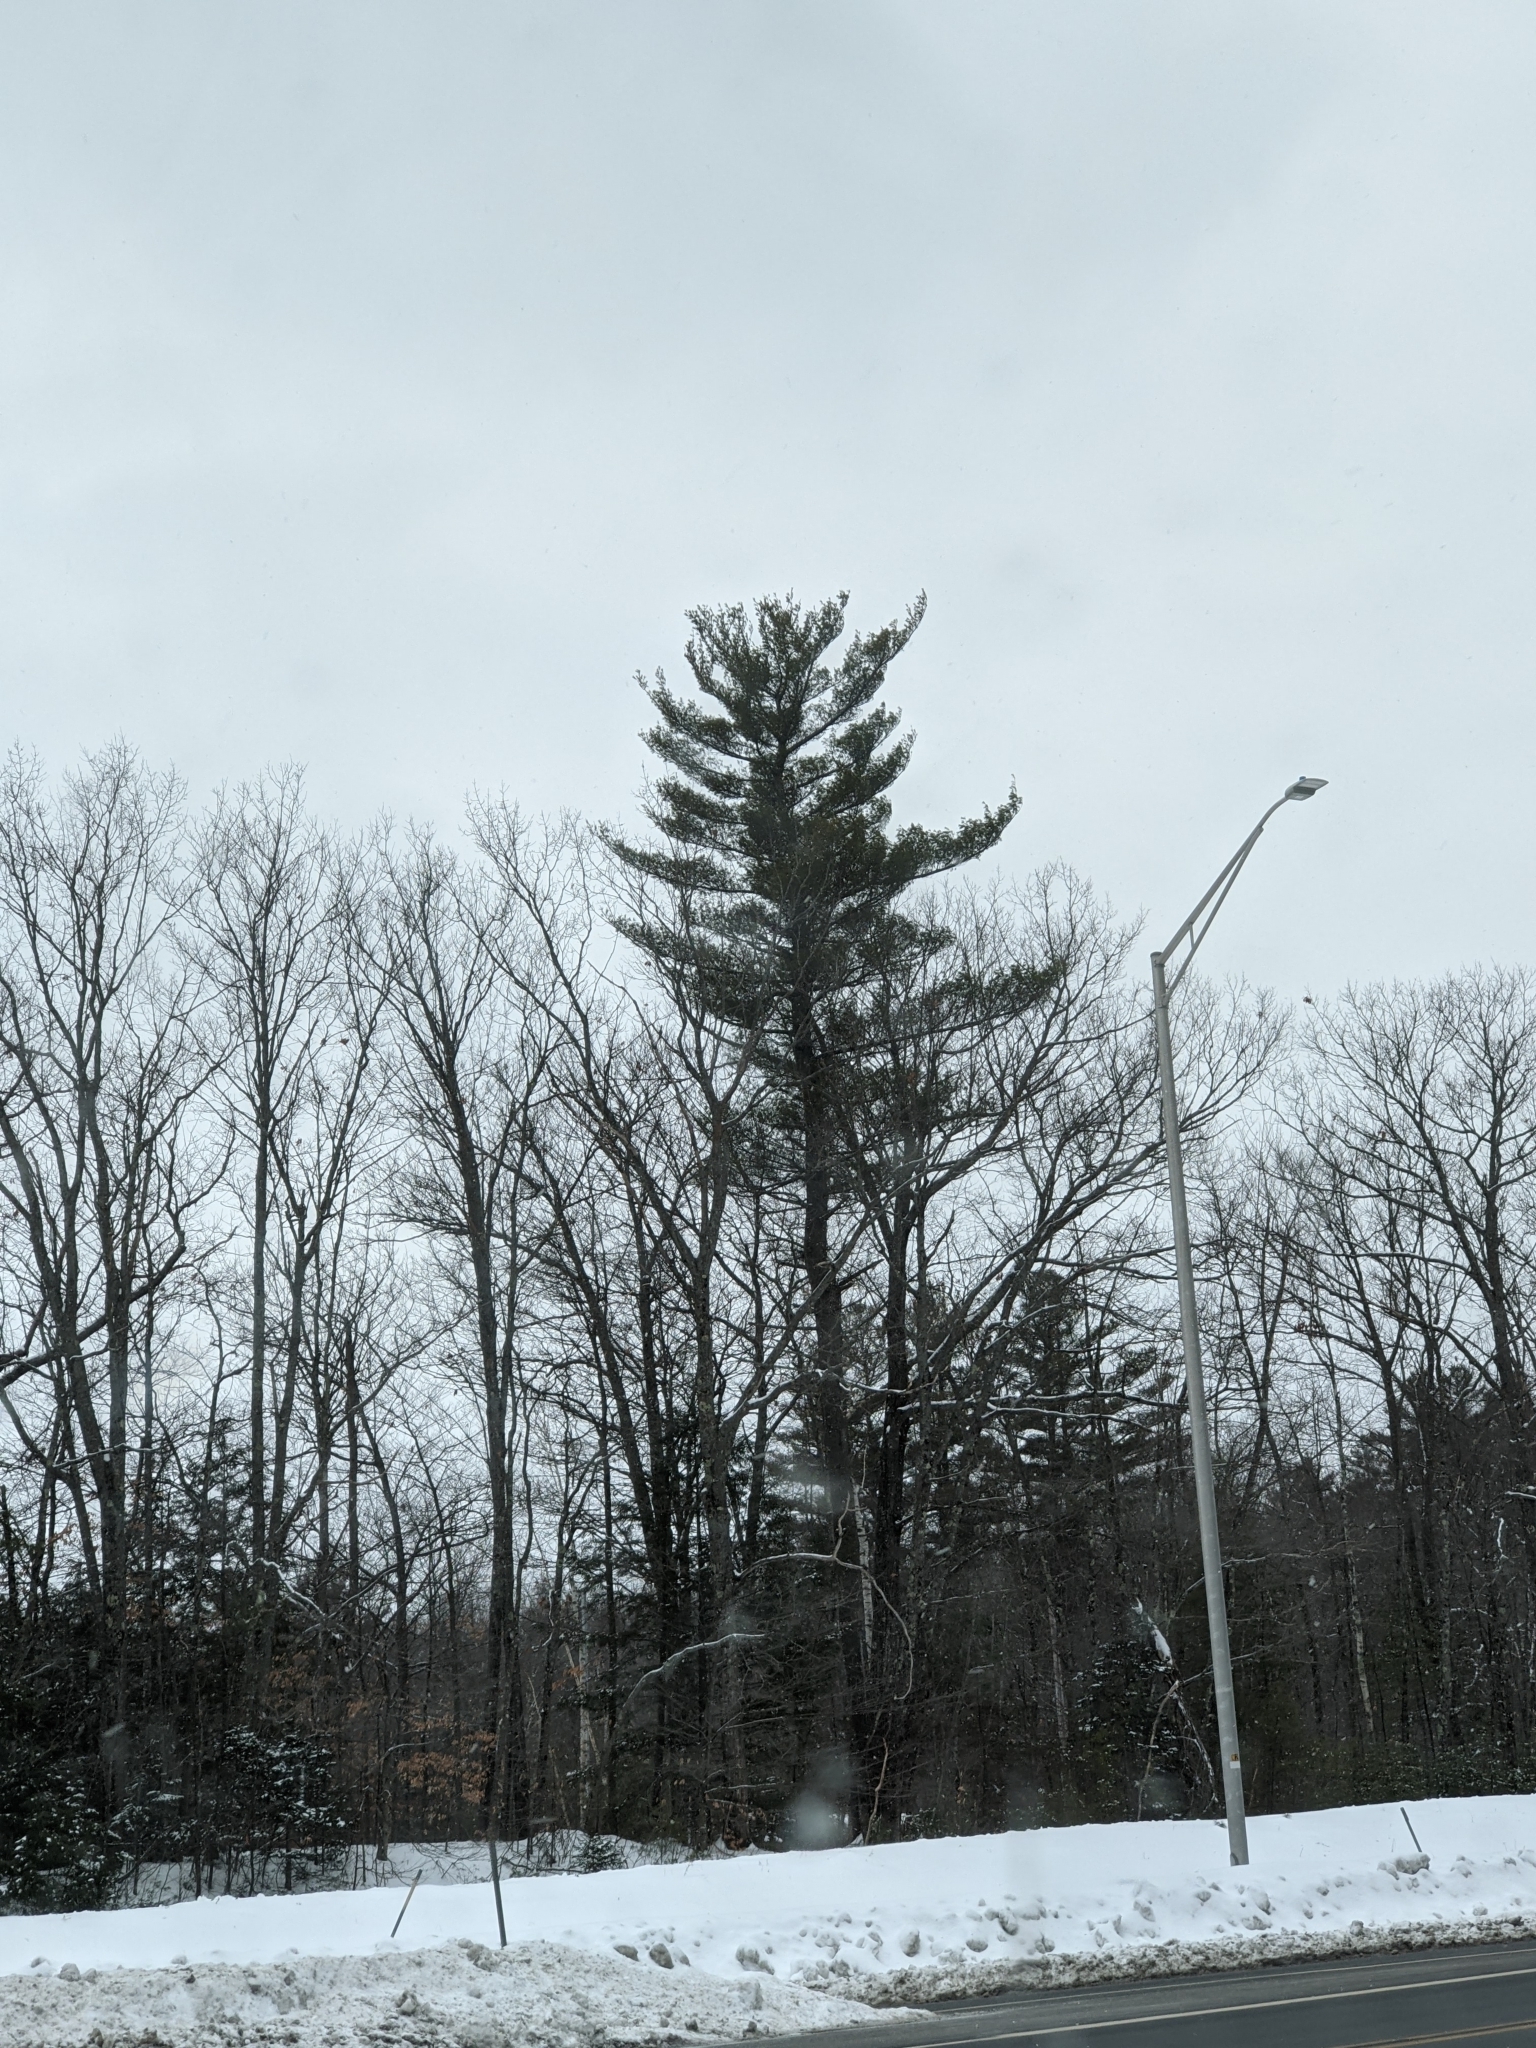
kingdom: Plantae
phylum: Tracheophyta
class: Pinopsida
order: Pinales
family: Pinaceae
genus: Pinus
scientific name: Pinus strobus
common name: Weymouth pine
